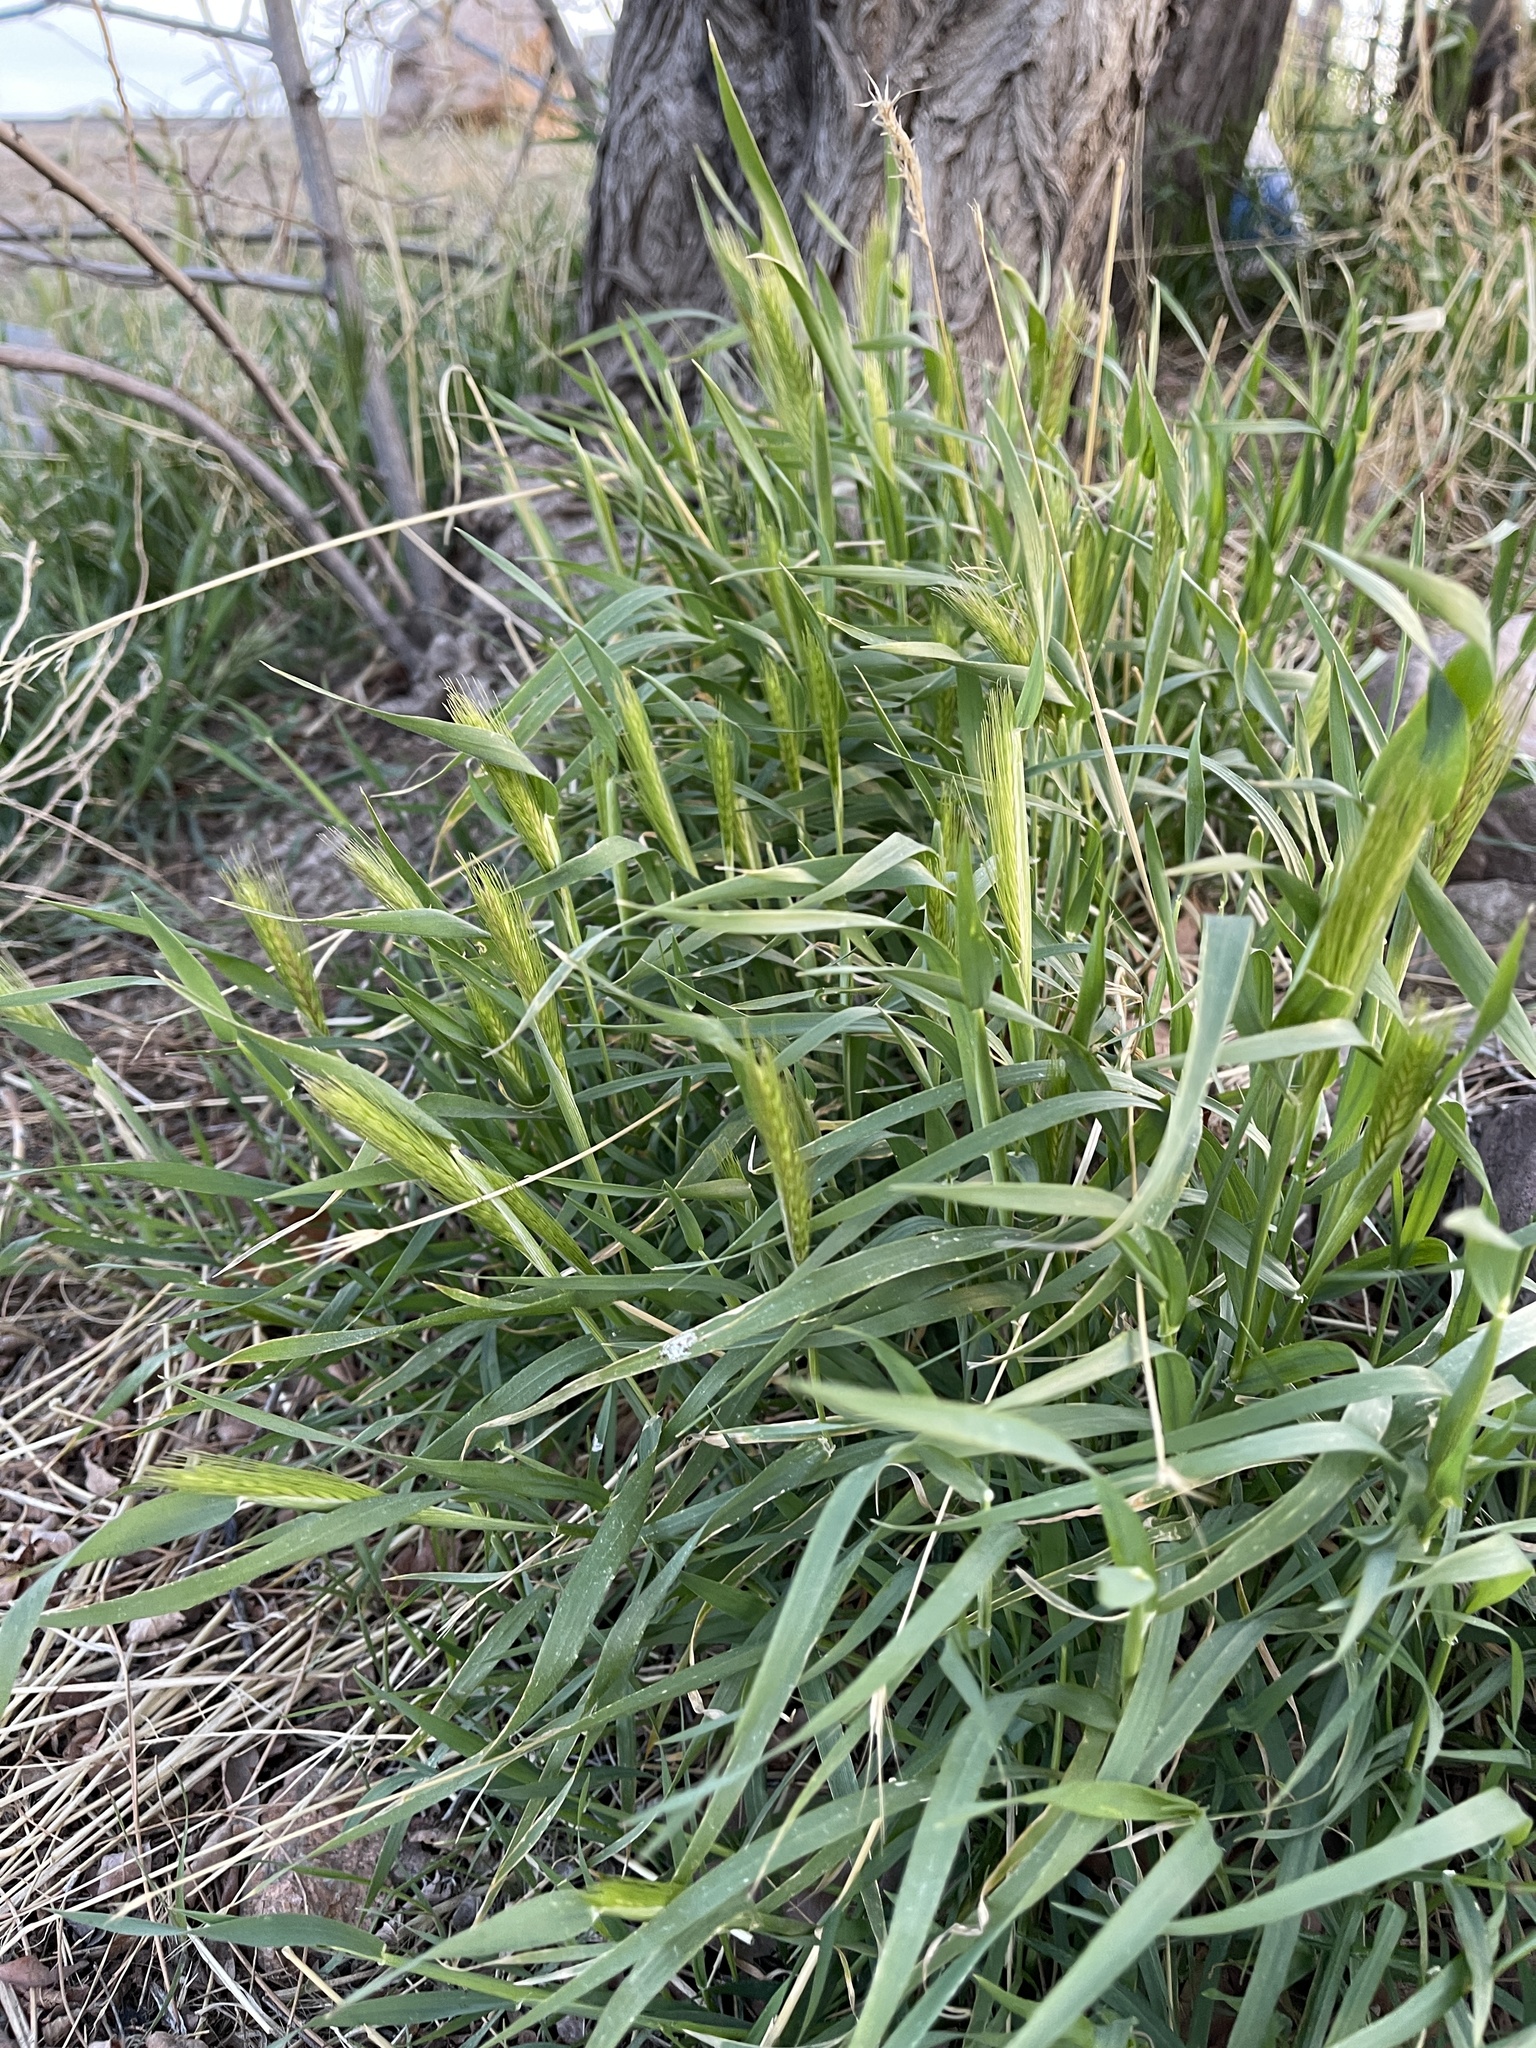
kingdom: Plantae
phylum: Tracheophyta
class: Liliopsida
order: Poales
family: Poaceae
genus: Hordeum
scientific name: Hordeum murinum
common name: Wall barley
